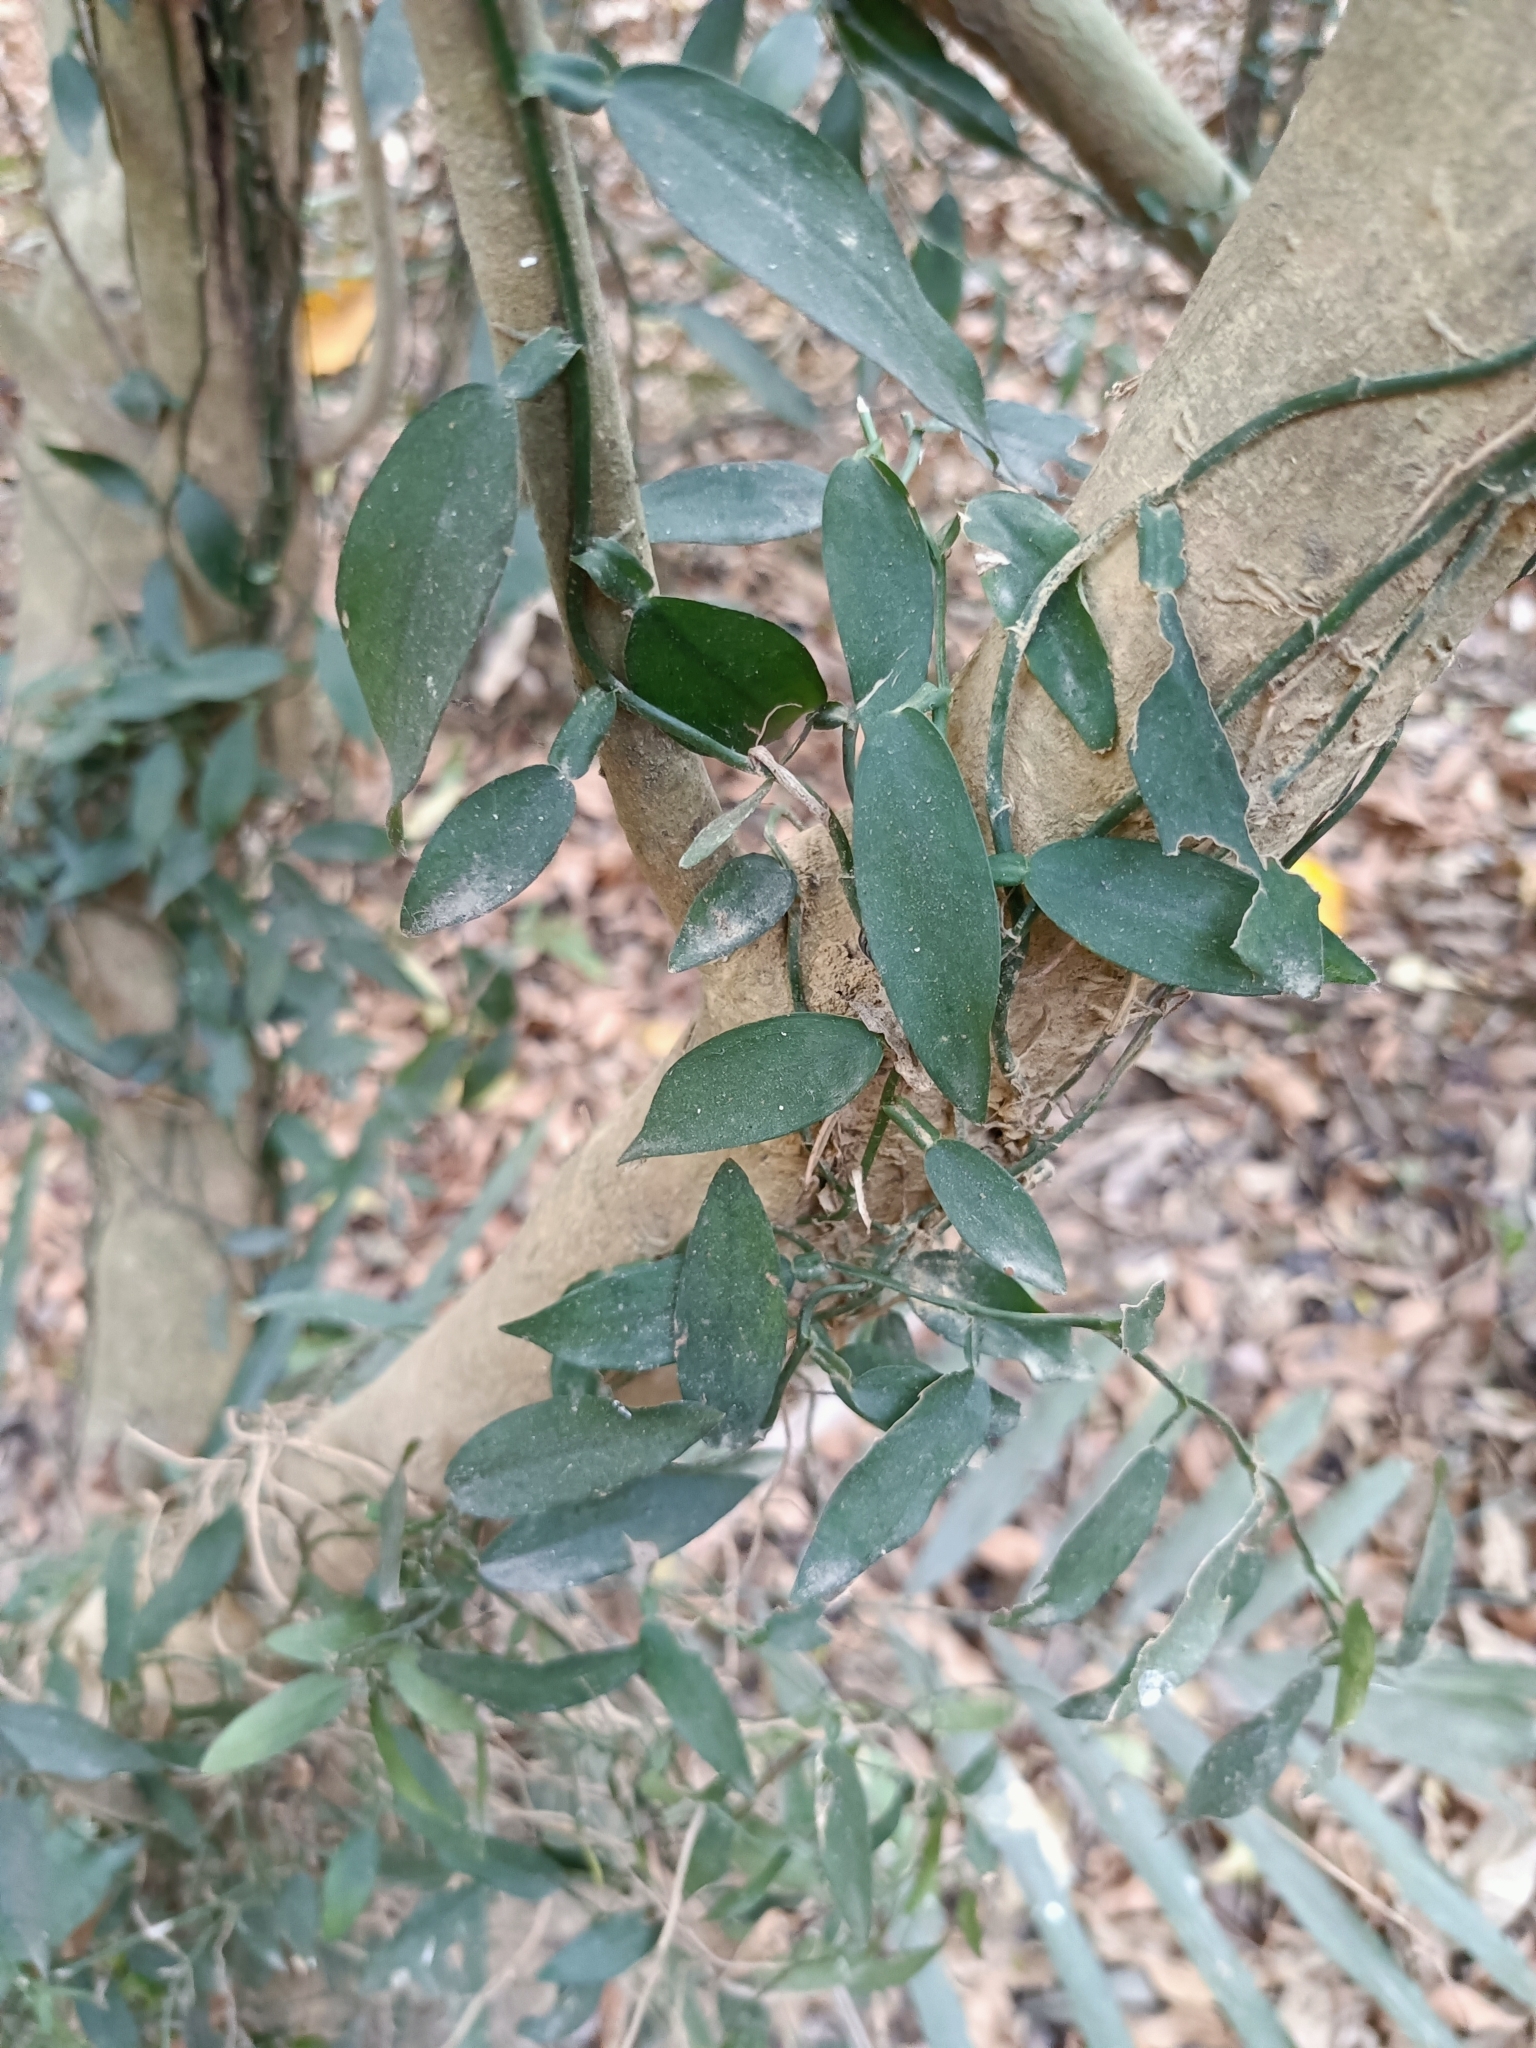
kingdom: Plantae
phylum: Tracheophyta
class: Liliopsida
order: Alismatales
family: Araceae
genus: Pothos
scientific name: Pothos chinensis
